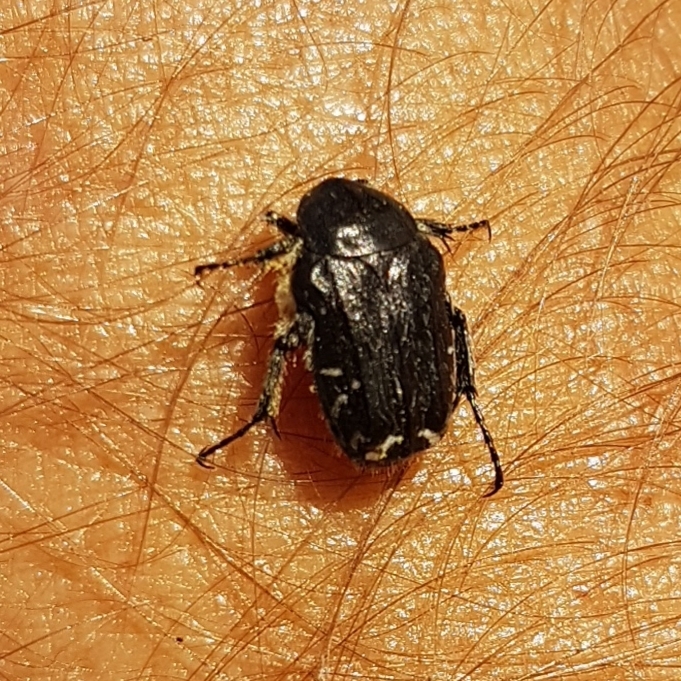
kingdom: Animalia
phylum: Arthropoda
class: Insecta
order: Coleoptera
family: Scarabaeidae
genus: Oxythyrea
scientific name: Oxythyrea funesta
